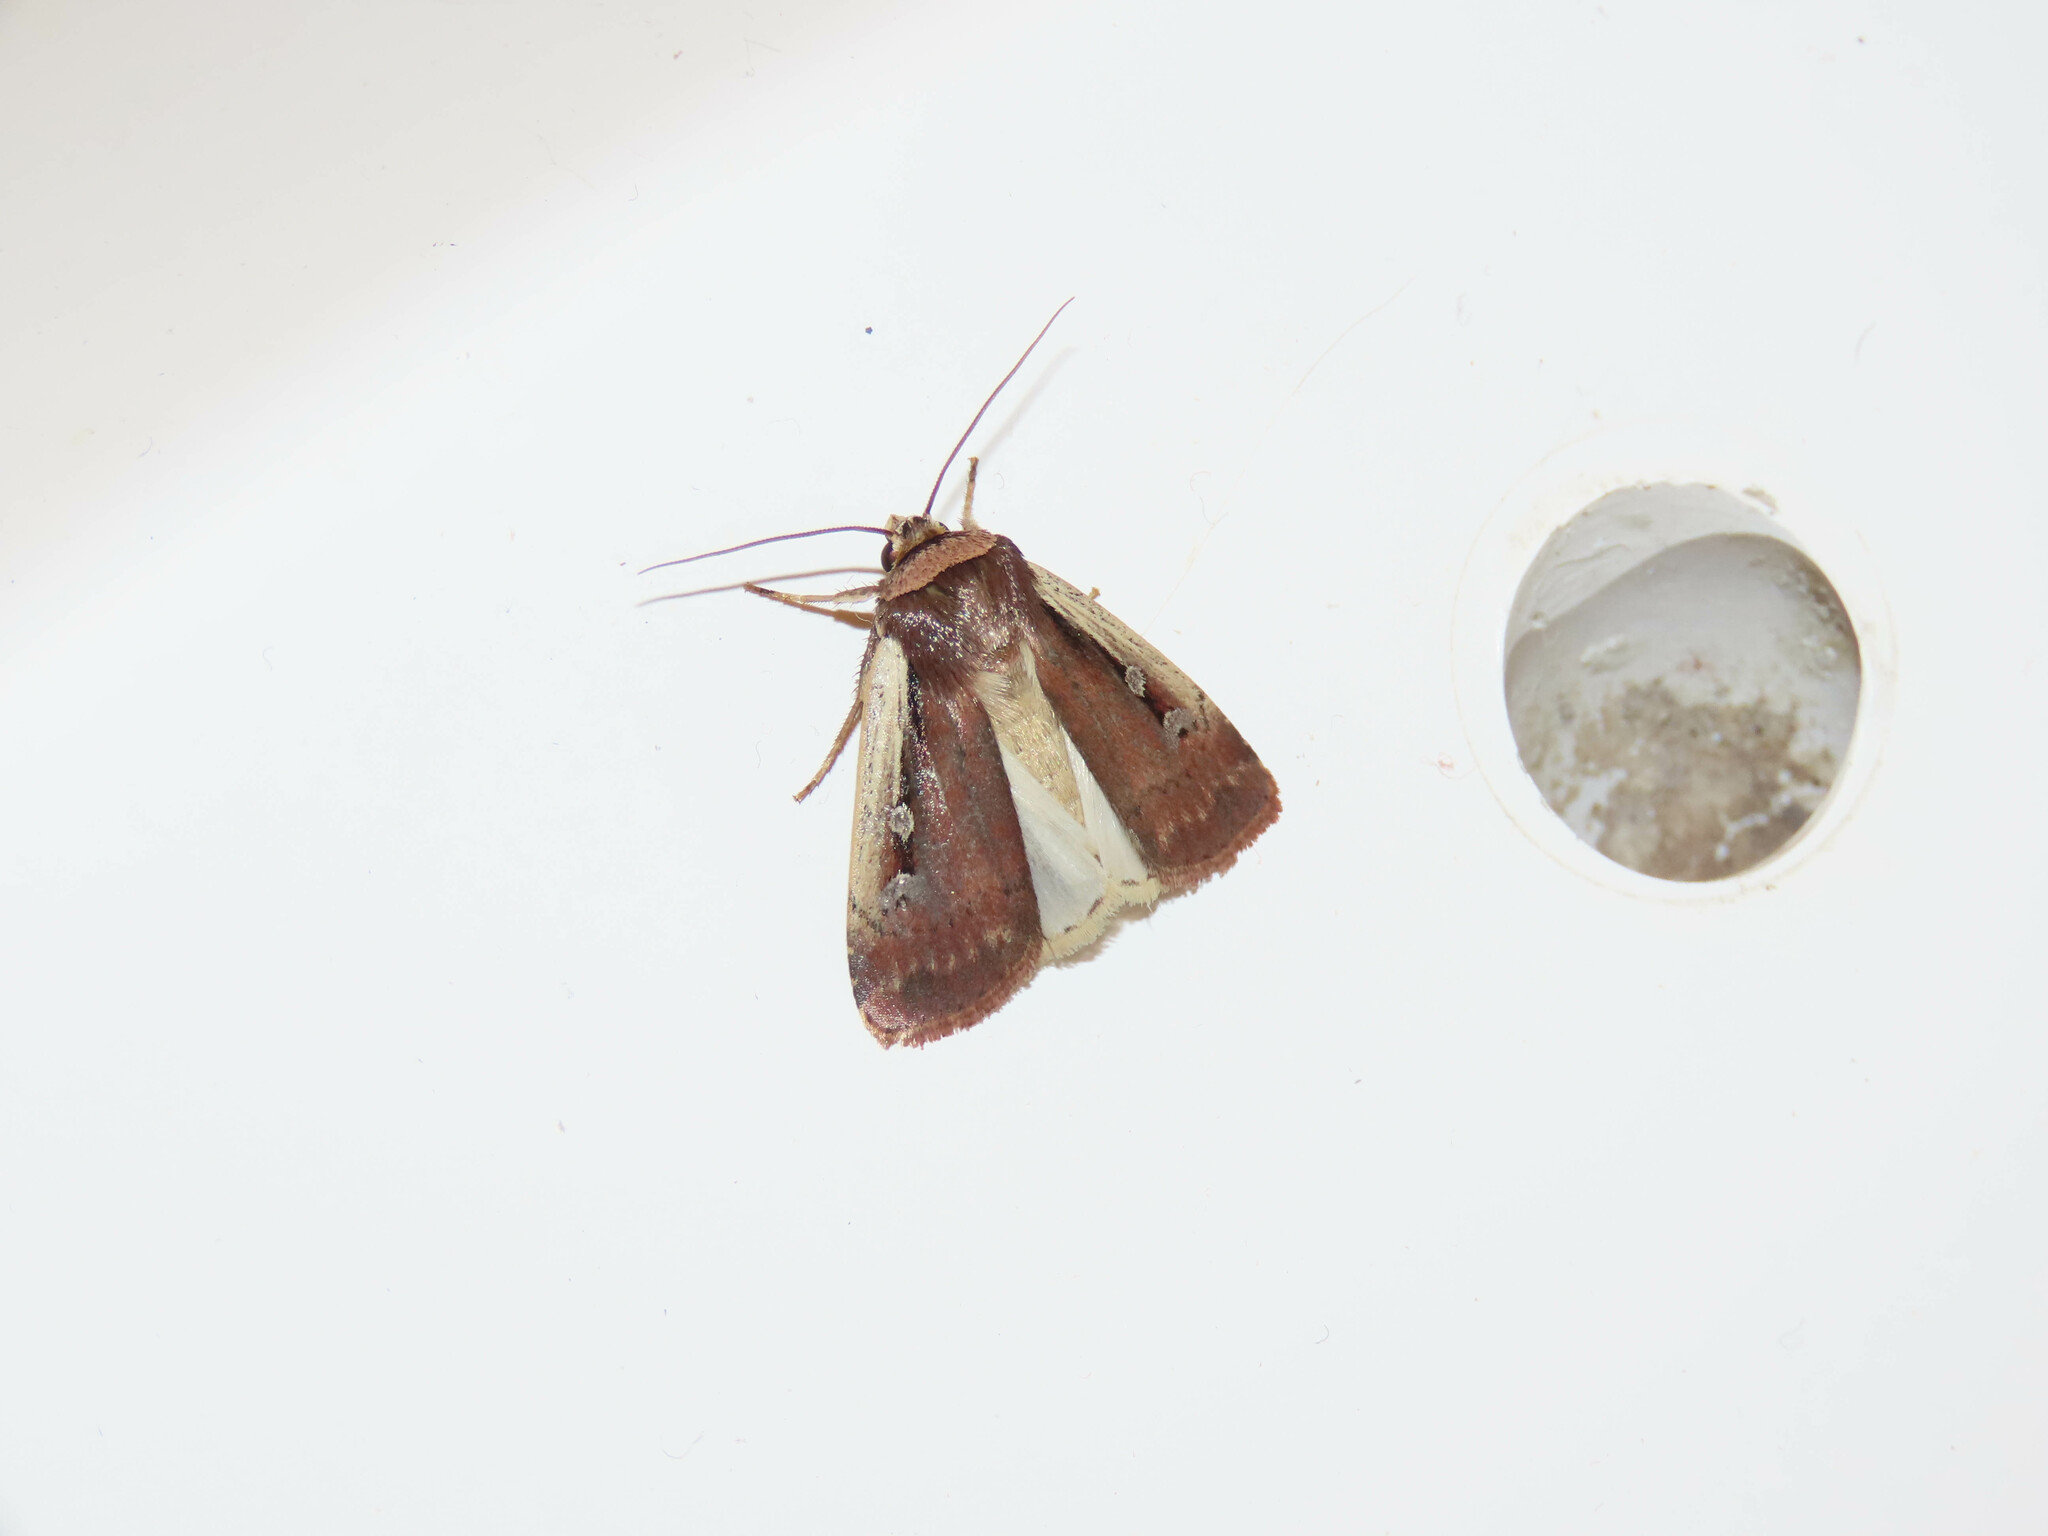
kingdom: Animalia
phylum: Arthropoda
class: Insecta
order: Lepidoptera
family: Noctuidae
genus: Ochropleura
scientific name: Ochropleura implecta
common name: Flame-shouldered dart
